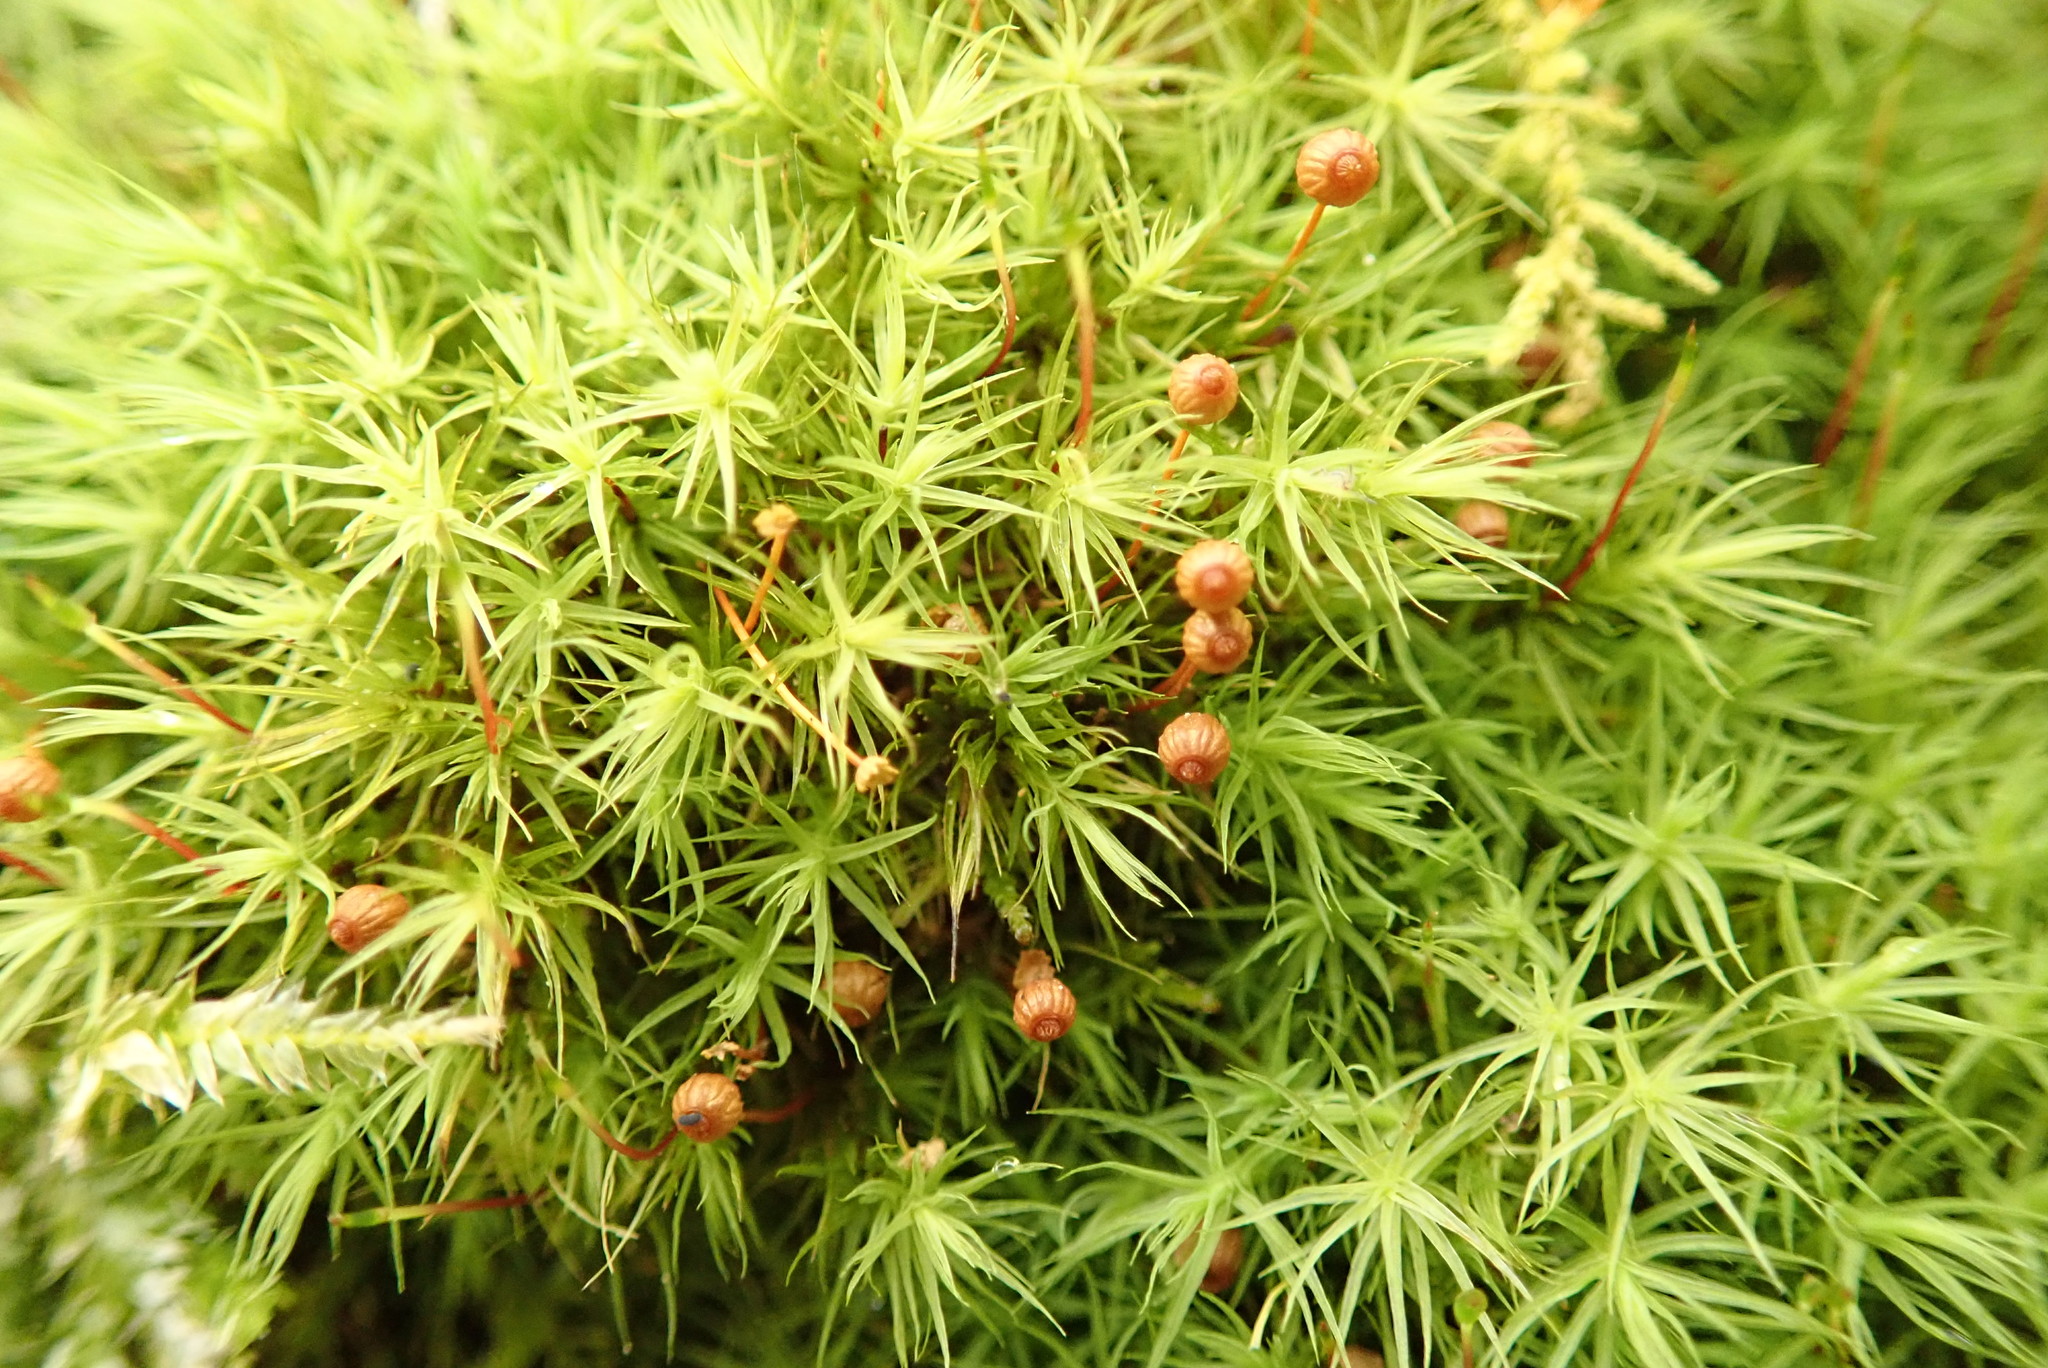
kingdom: Plantae
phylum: Bryophyta
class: Bryopsida
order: Bartramiales
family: Bartramiaceae
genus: Bartramia
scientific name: Bartramia ithyphylla
